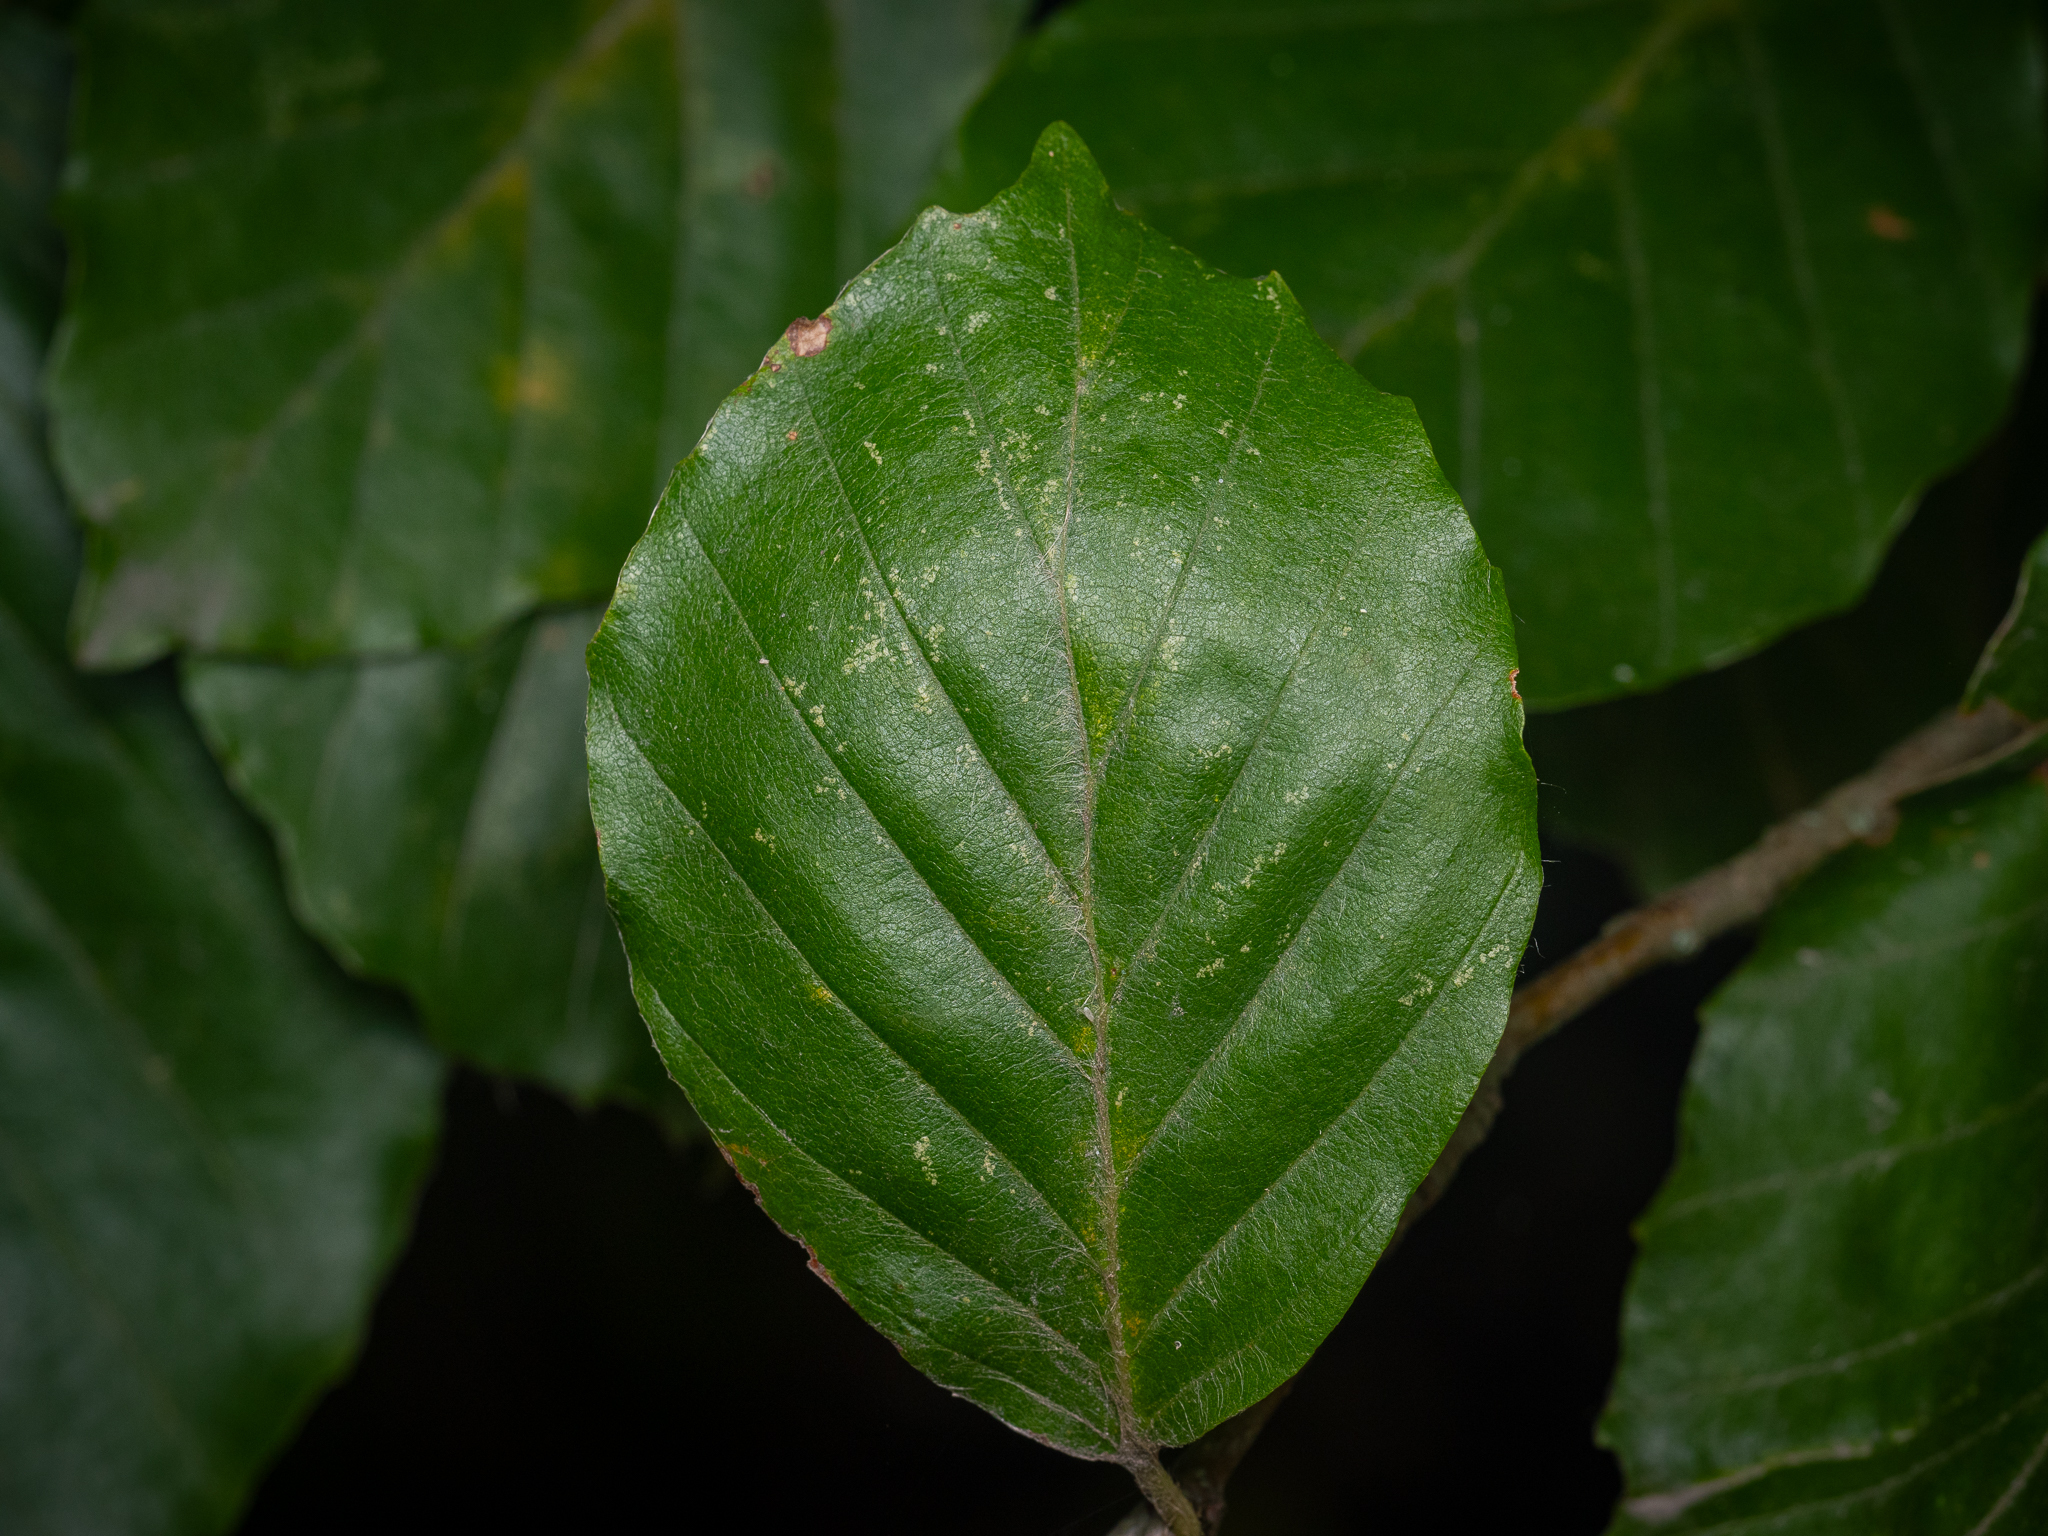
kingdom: Plantae
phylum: Tracheophyta
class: Magnoliopsida
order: Fagales
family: Fagaceae
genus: Fagus
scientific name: Fagus sylvatica
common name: Beech
